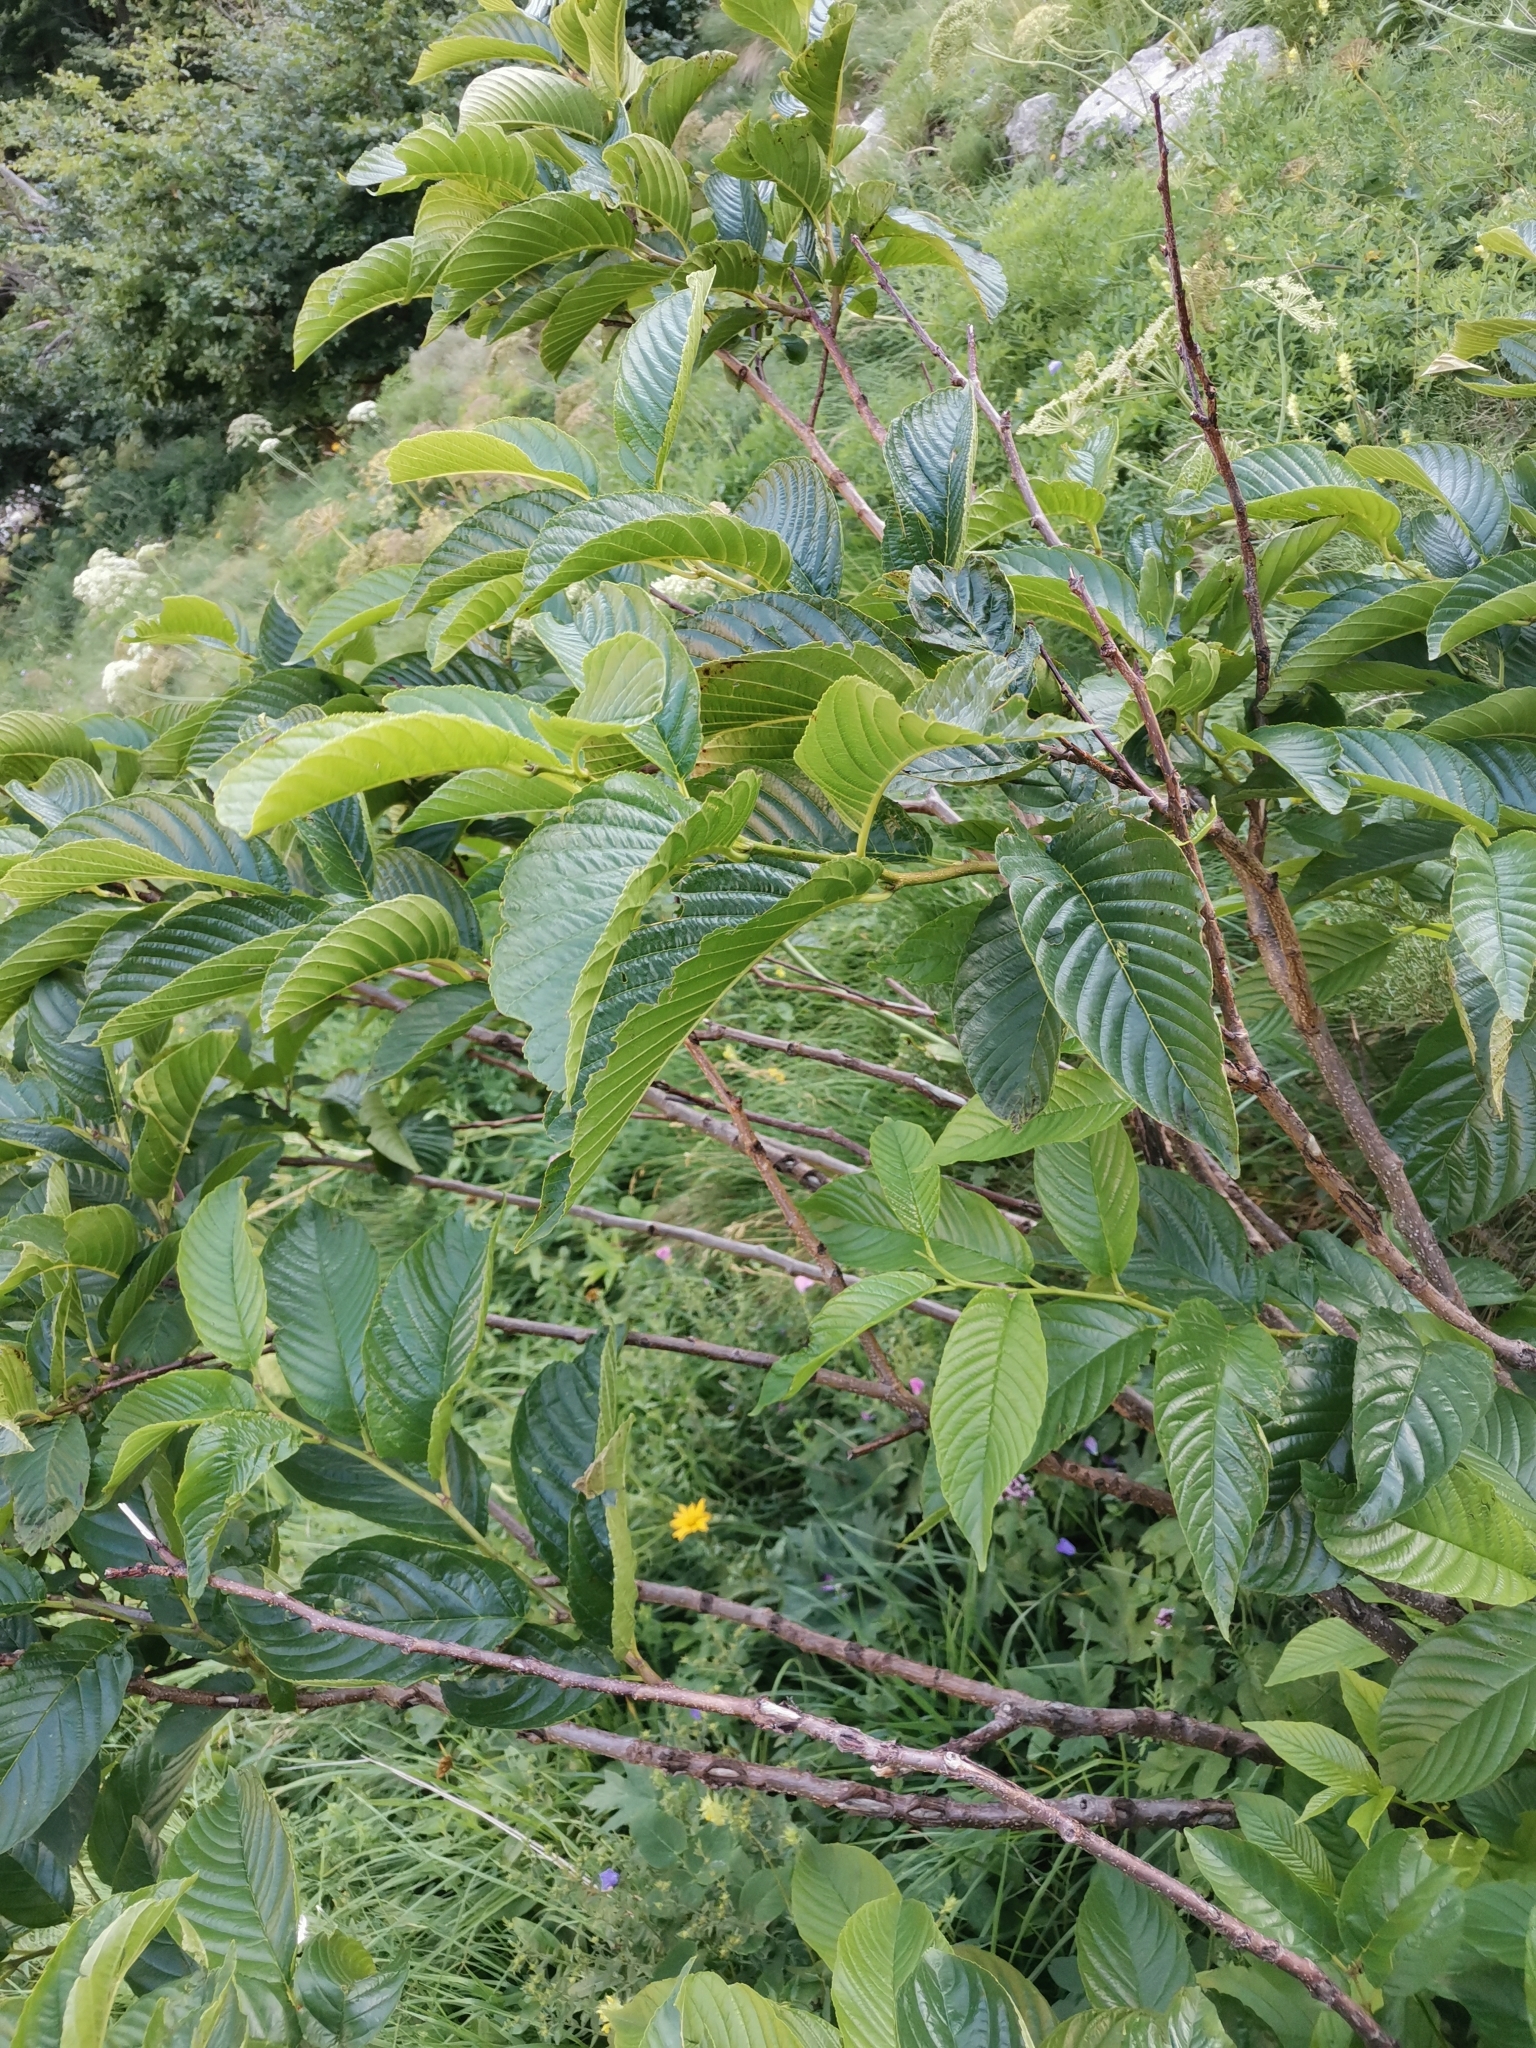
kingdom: Plantae
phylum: Tracheophyta
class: Magnoliopsida
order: Rosales
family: Rhamnaceae
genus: Atadinus
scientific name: Atadinus fallax
